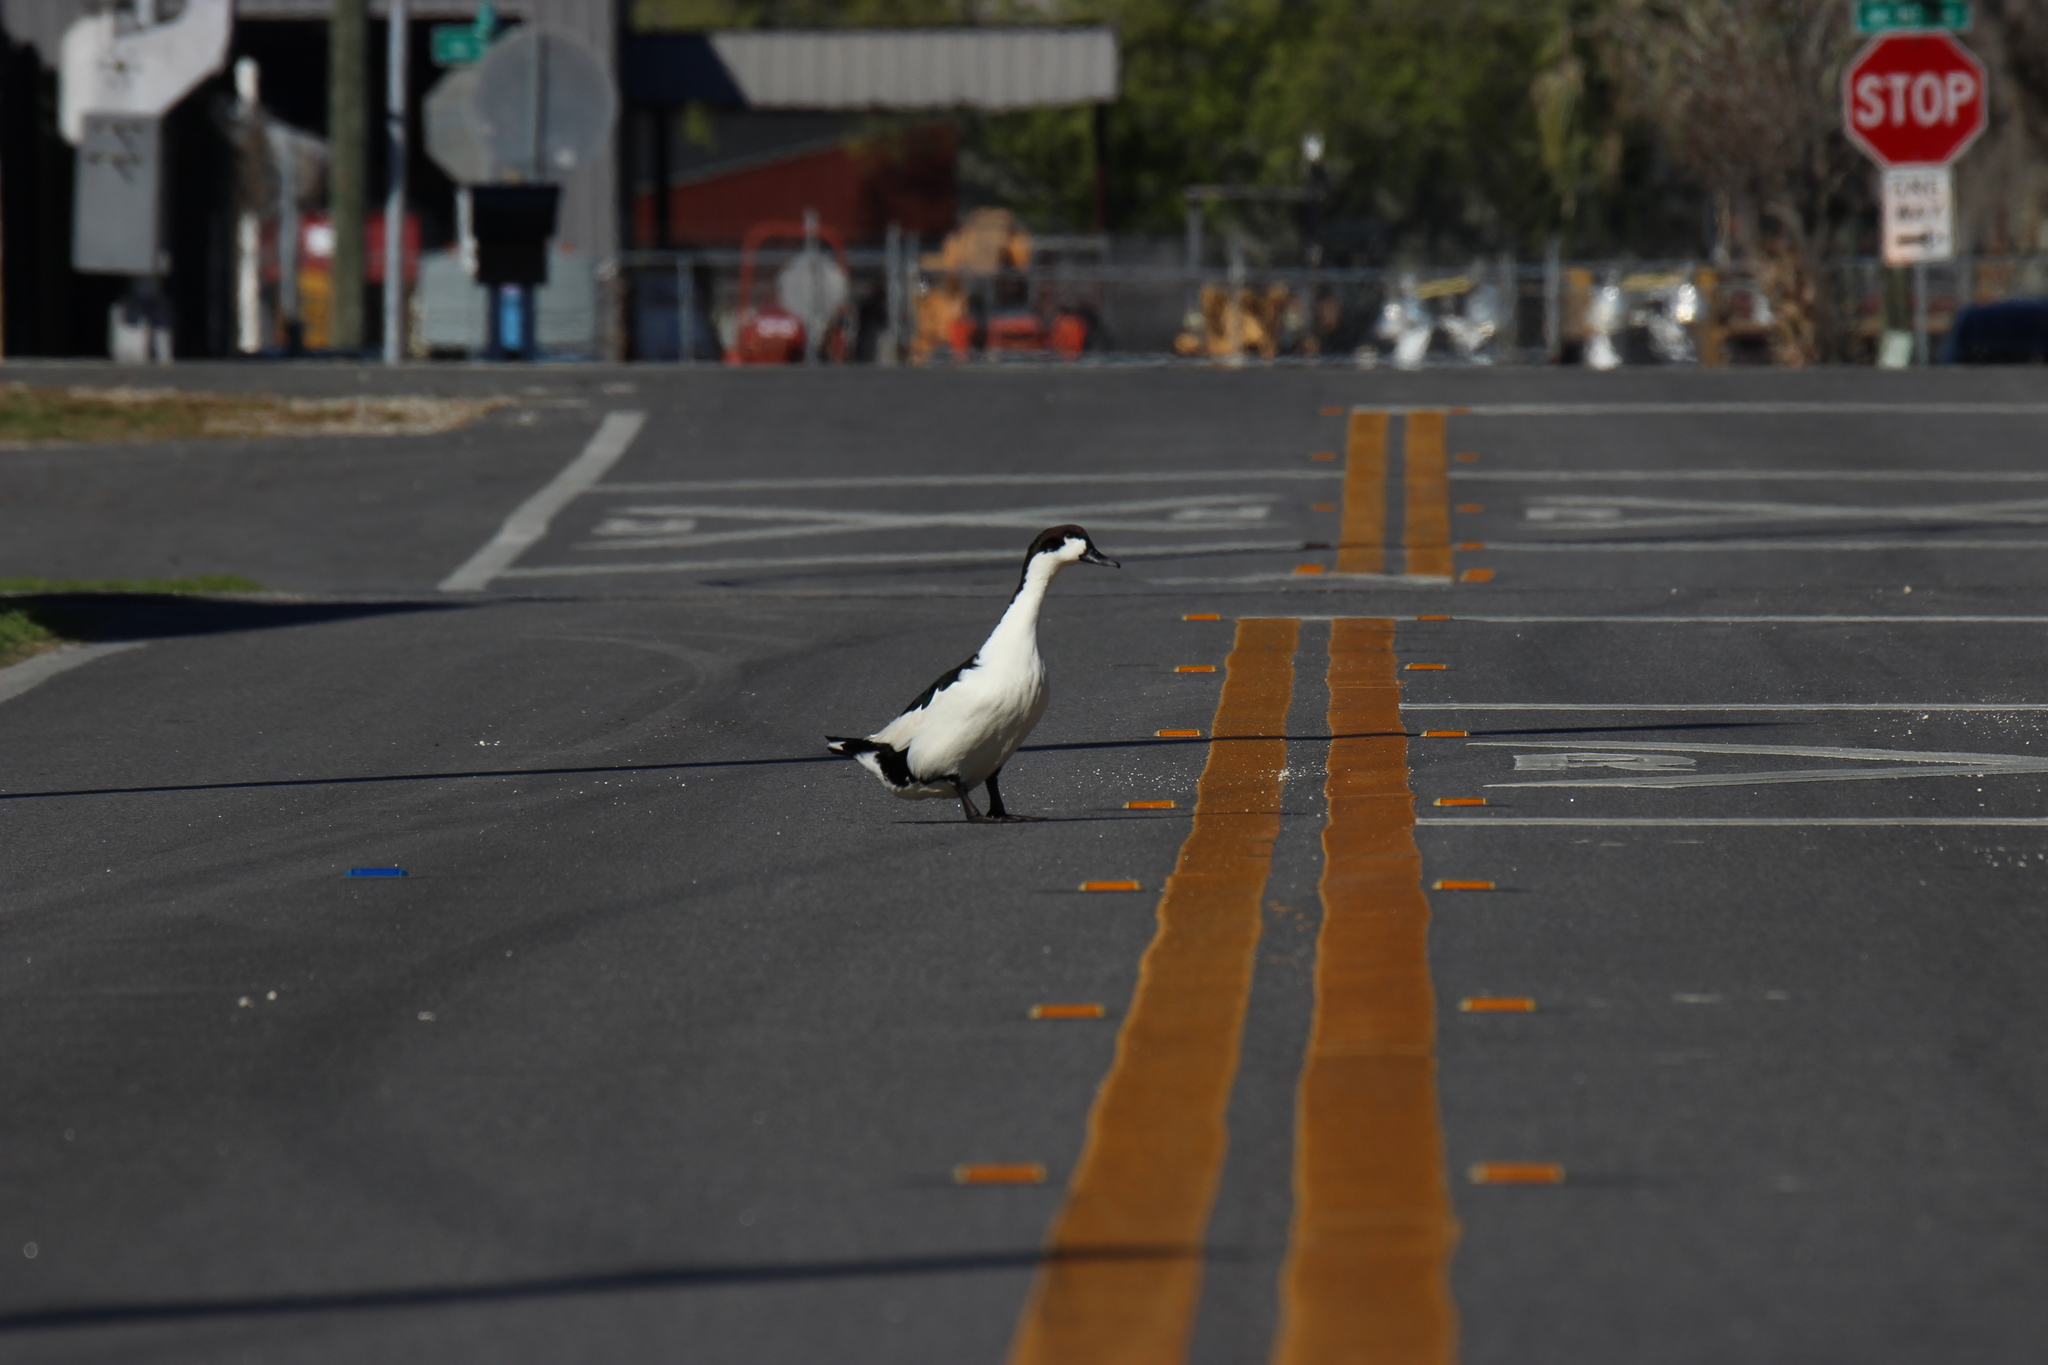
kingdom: Animalia
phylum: Chordata
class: Aves
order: Anseriformes
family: Anatidae
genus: Anas
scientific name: Anas platyrhynchos
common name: Mallard
